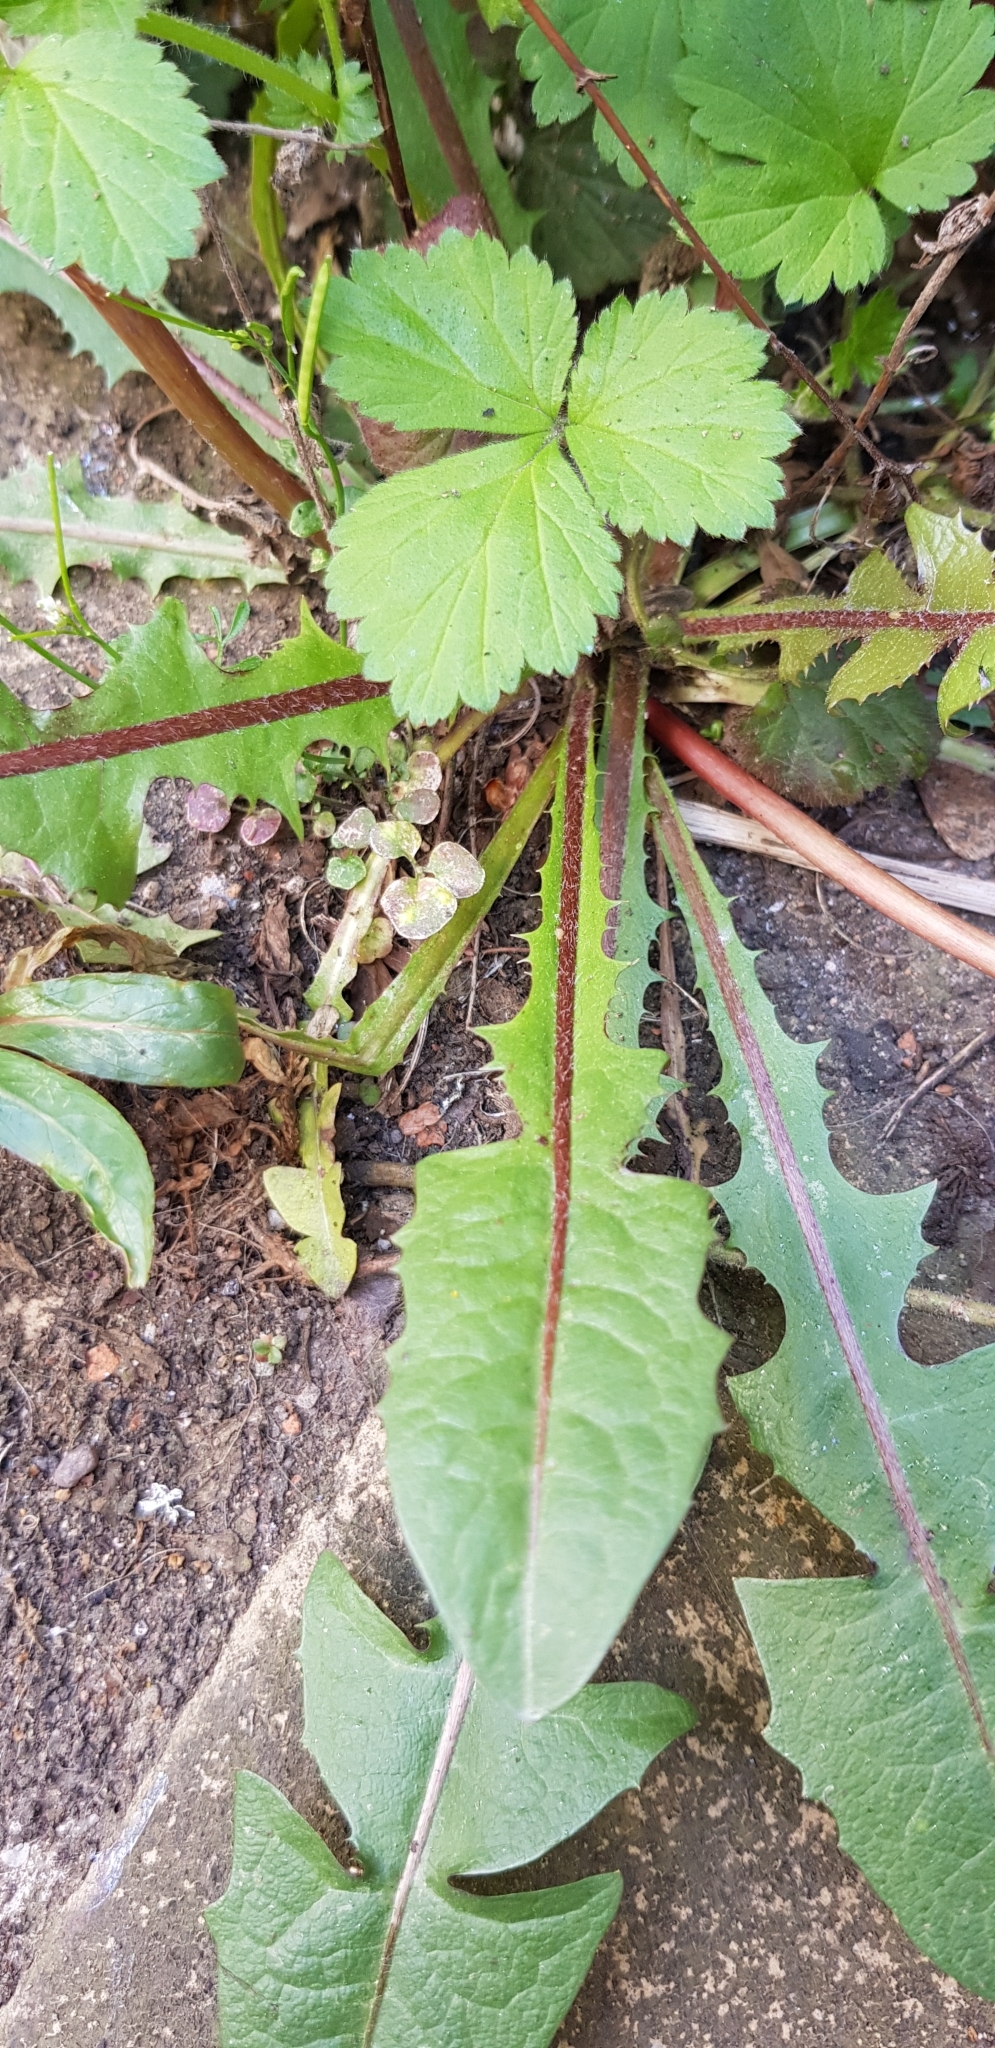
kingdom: Plantae
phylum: Tracheophyta
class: Magnoliopsida
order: Asterales
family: Asteraceae
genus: Taraxacum
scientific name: Taraxacum boekmanii
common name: Bökman's dandelion
